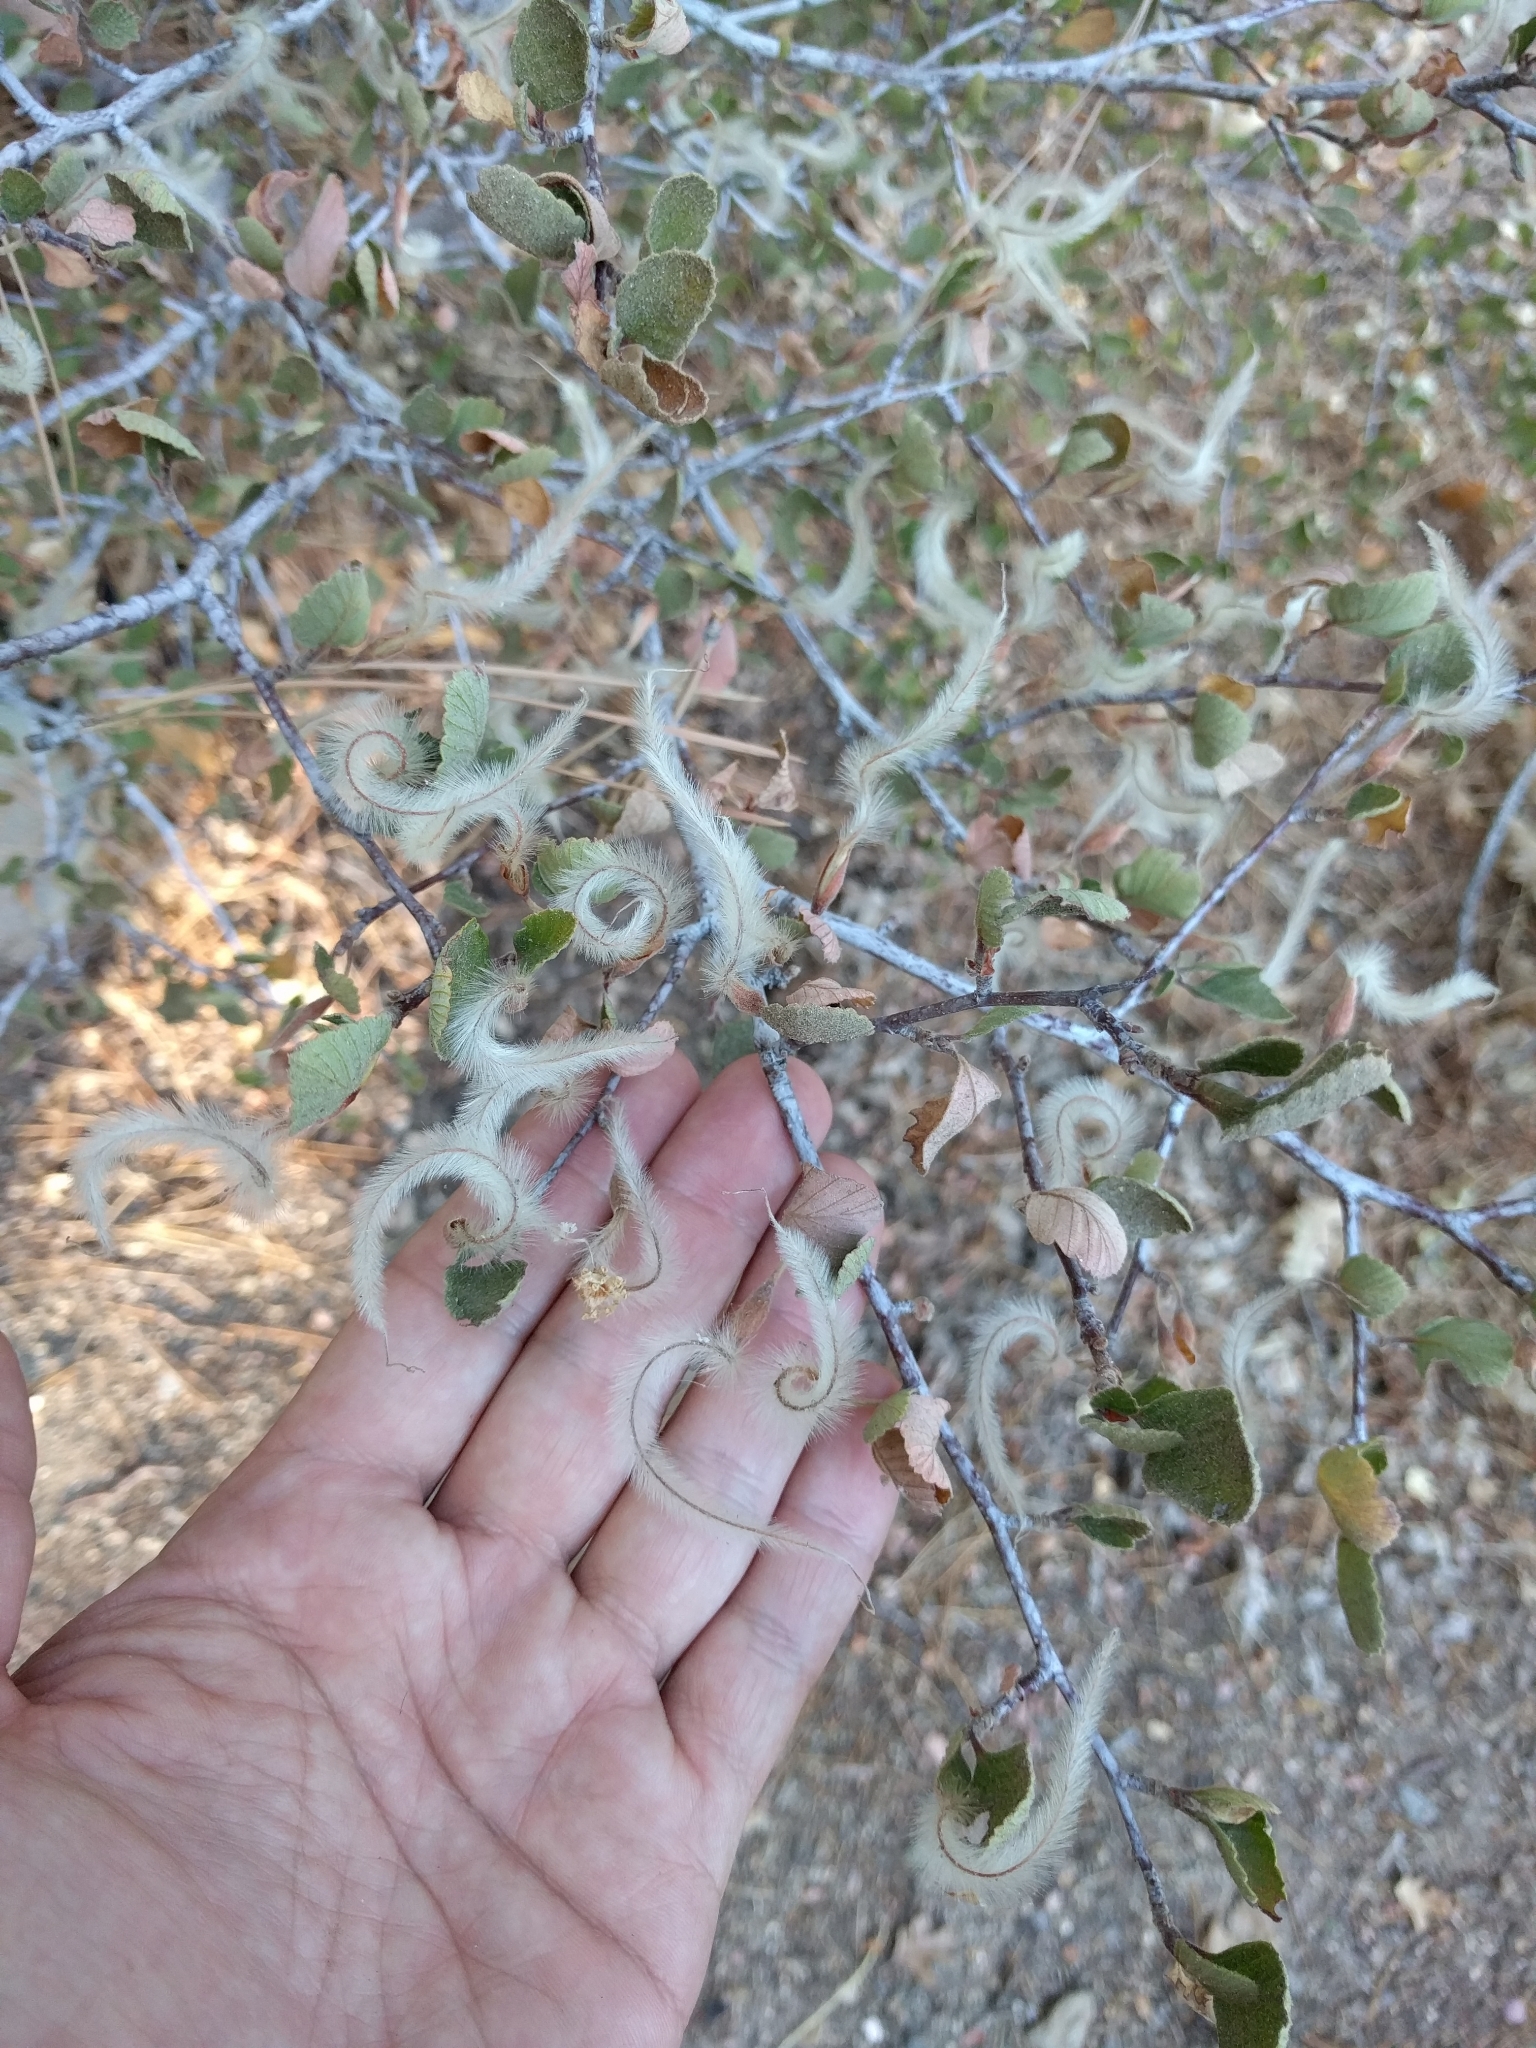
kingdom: Plantae
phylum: Tracheophyta
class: Magnoliopsida
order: Rosales
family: Rosaceae
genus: Cercocarpus
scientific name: Cercocarpus betuloides
